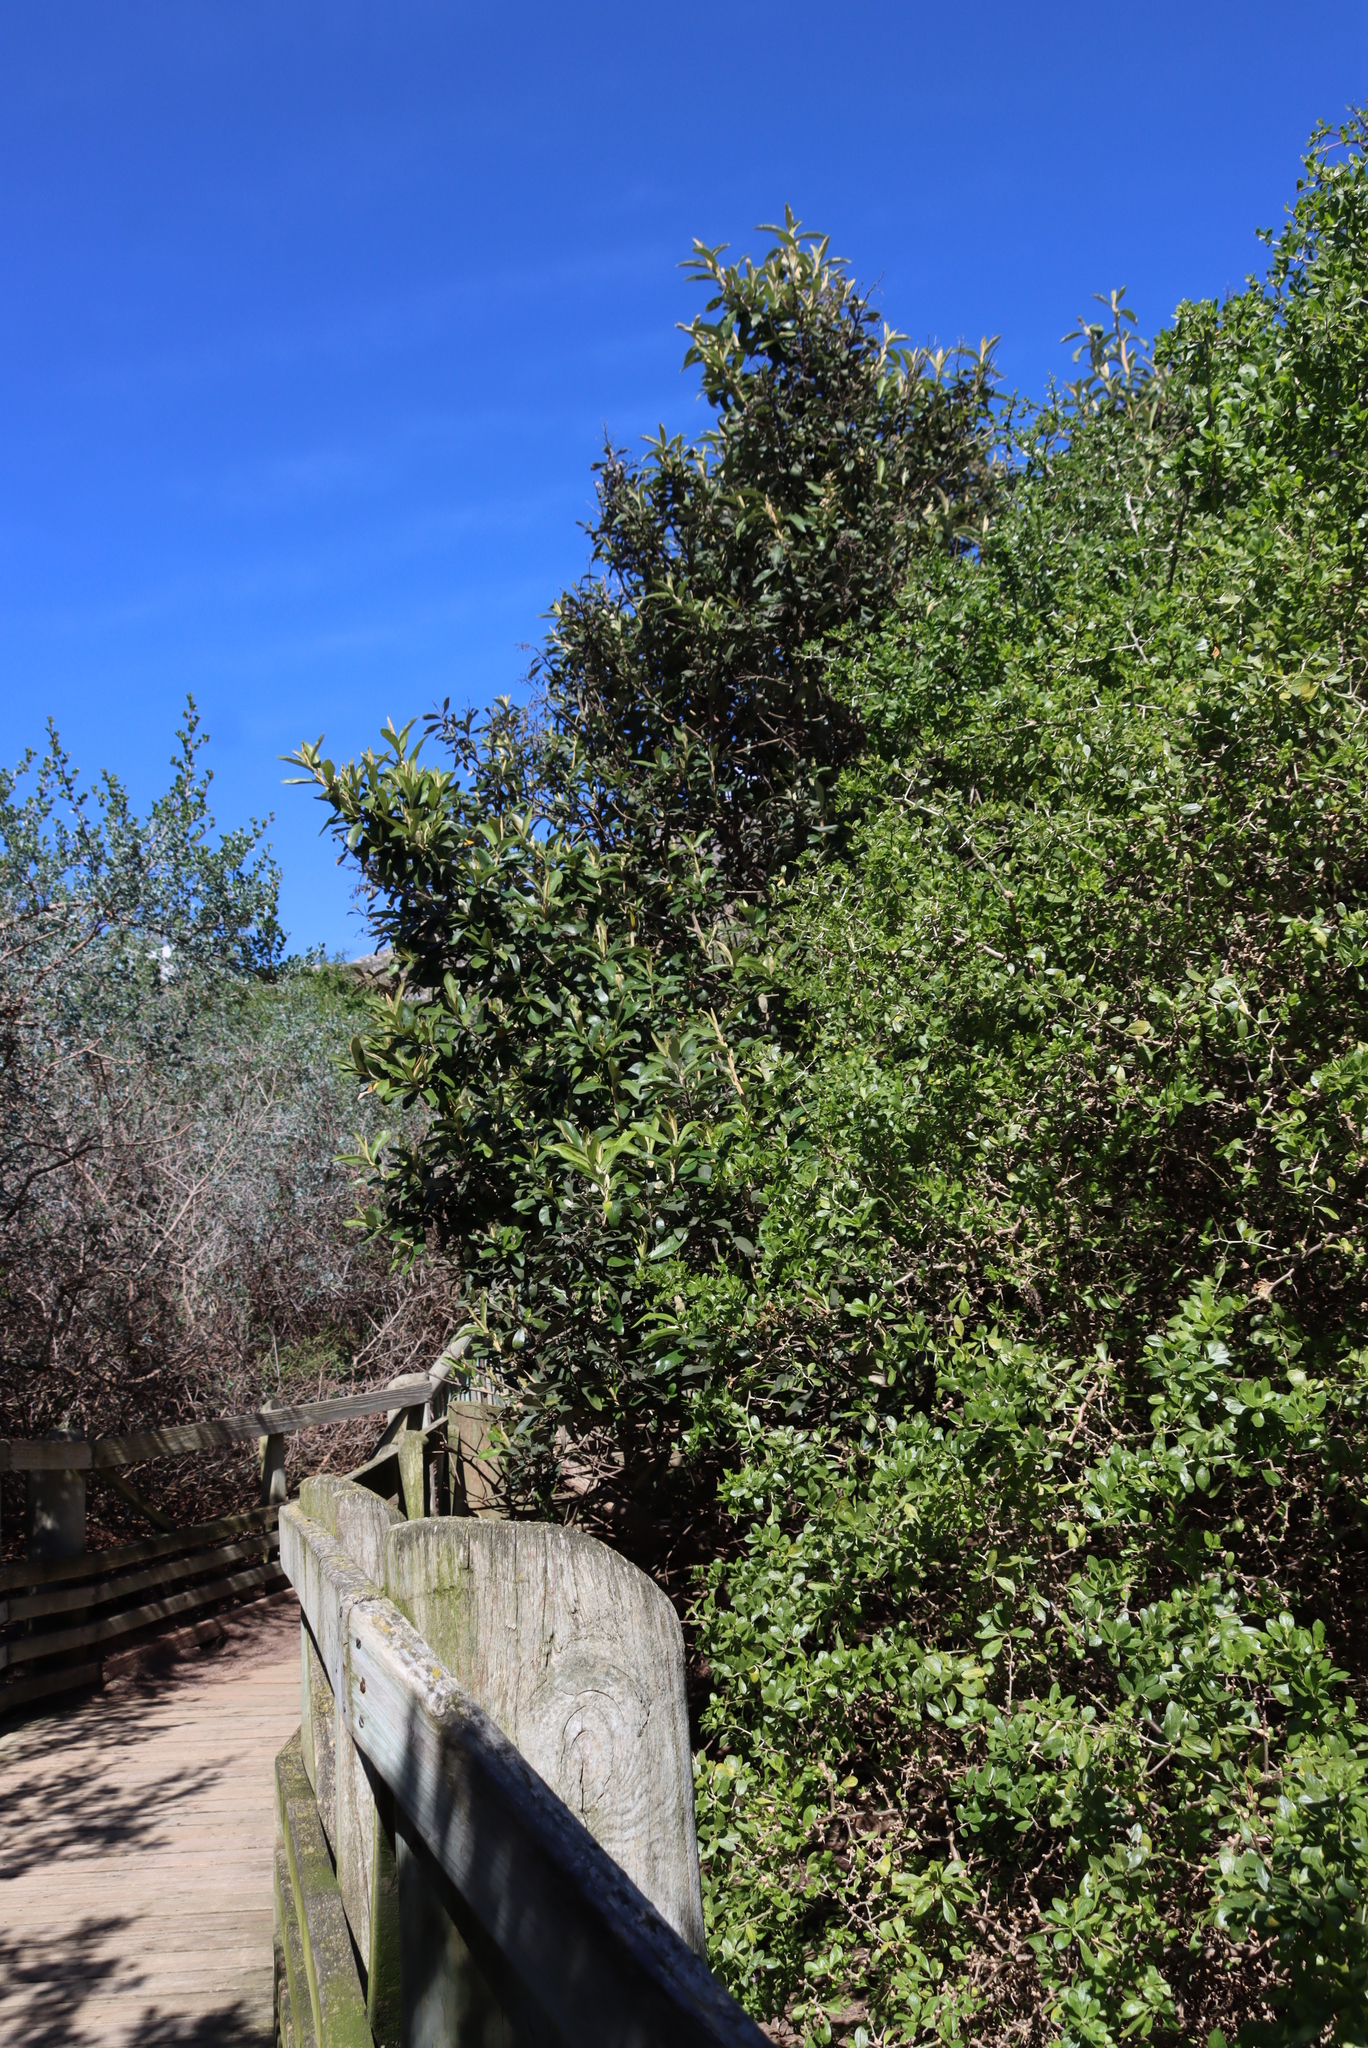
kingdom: Plantae
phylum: Tracheophyta
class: Magnoliopsida
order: Asterales
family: Asteraceae
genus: Tarchonanthus
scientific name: Tarchonanthus littoralis
